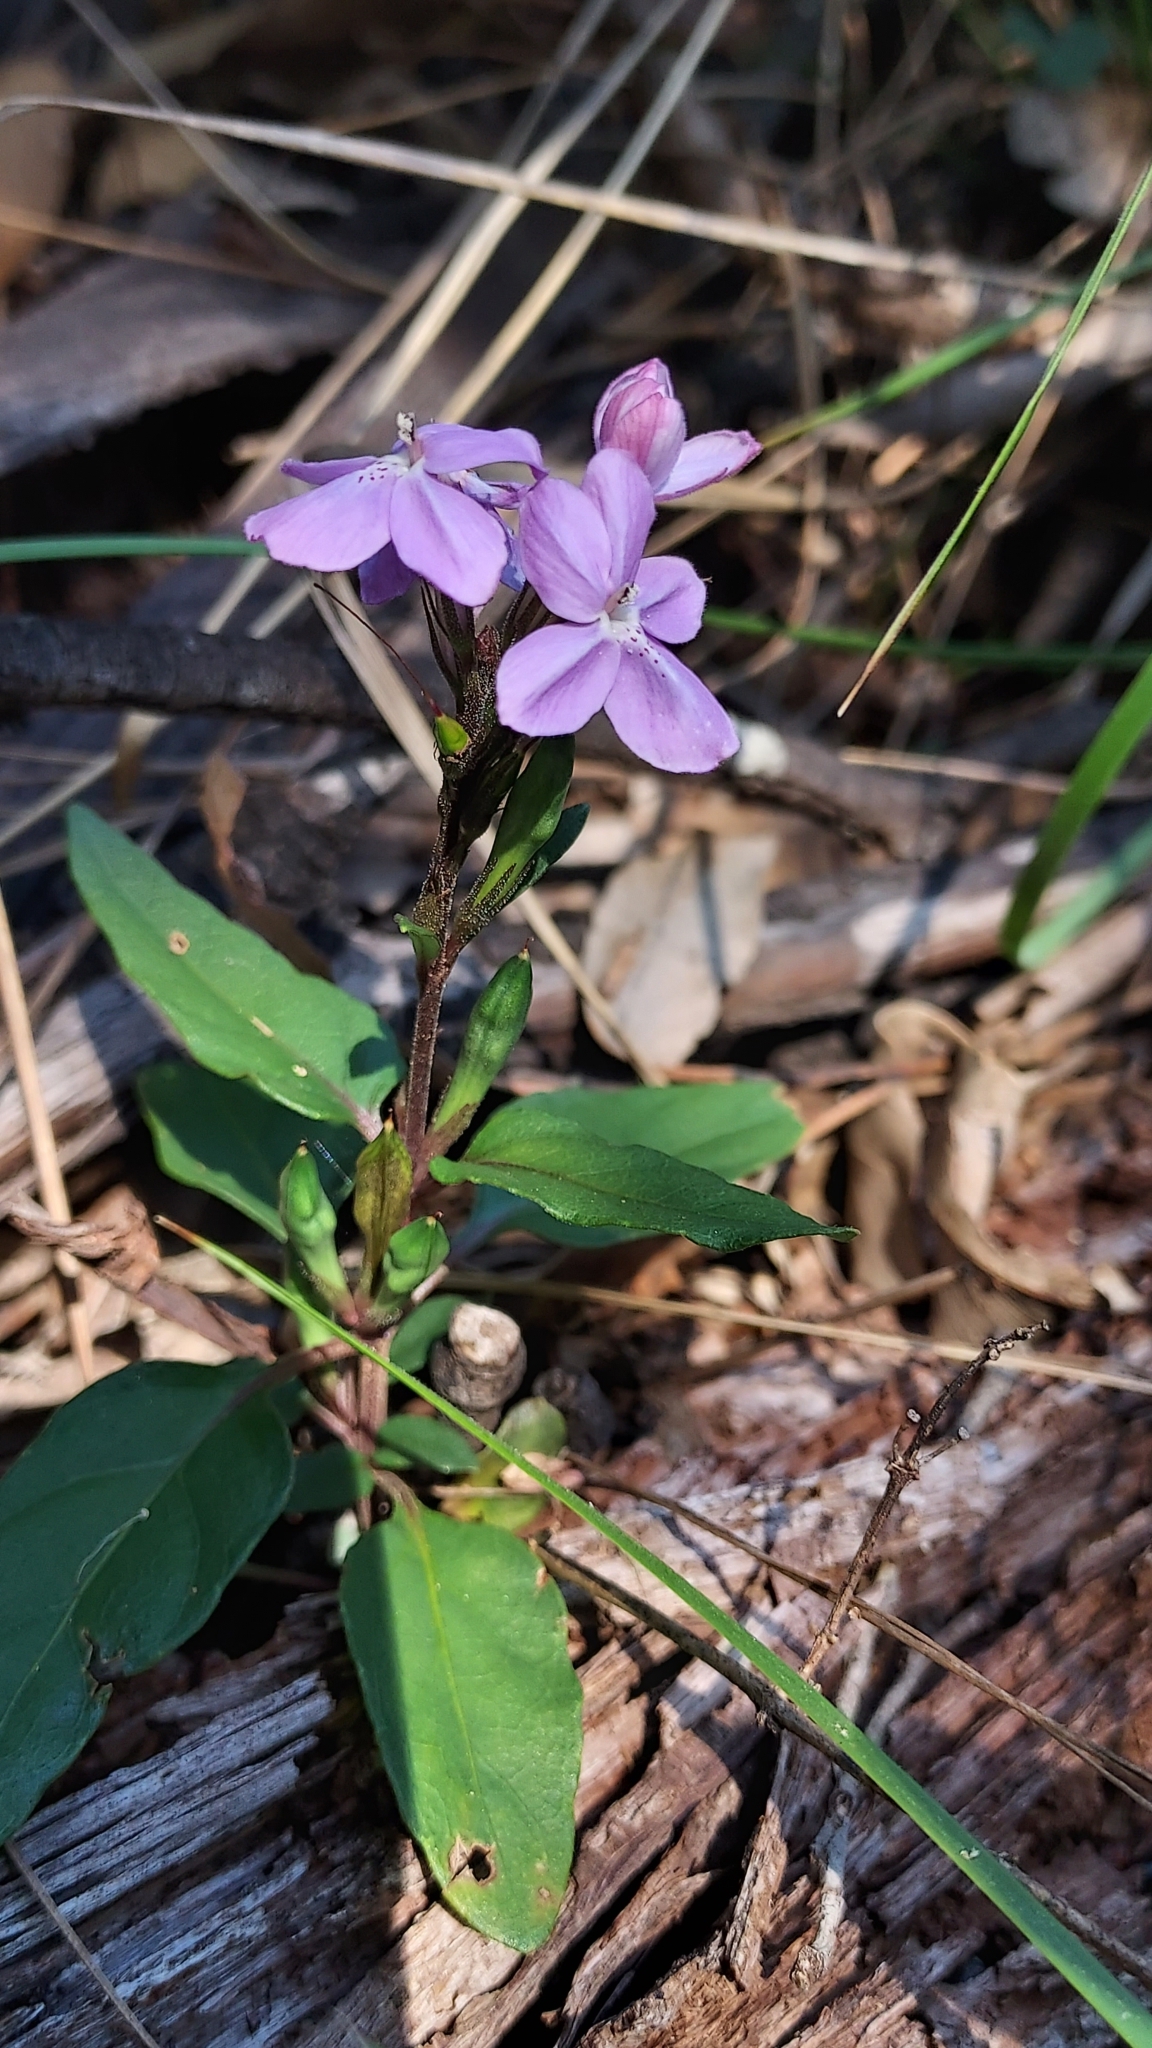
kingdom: Plantae
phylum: Tracheophyta
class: Magnoliopsida
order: Lamiales
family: Acanthaceae
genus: Pseuderanthemum
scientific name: Pseuderanthemum variabile
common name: Night and afternoon
